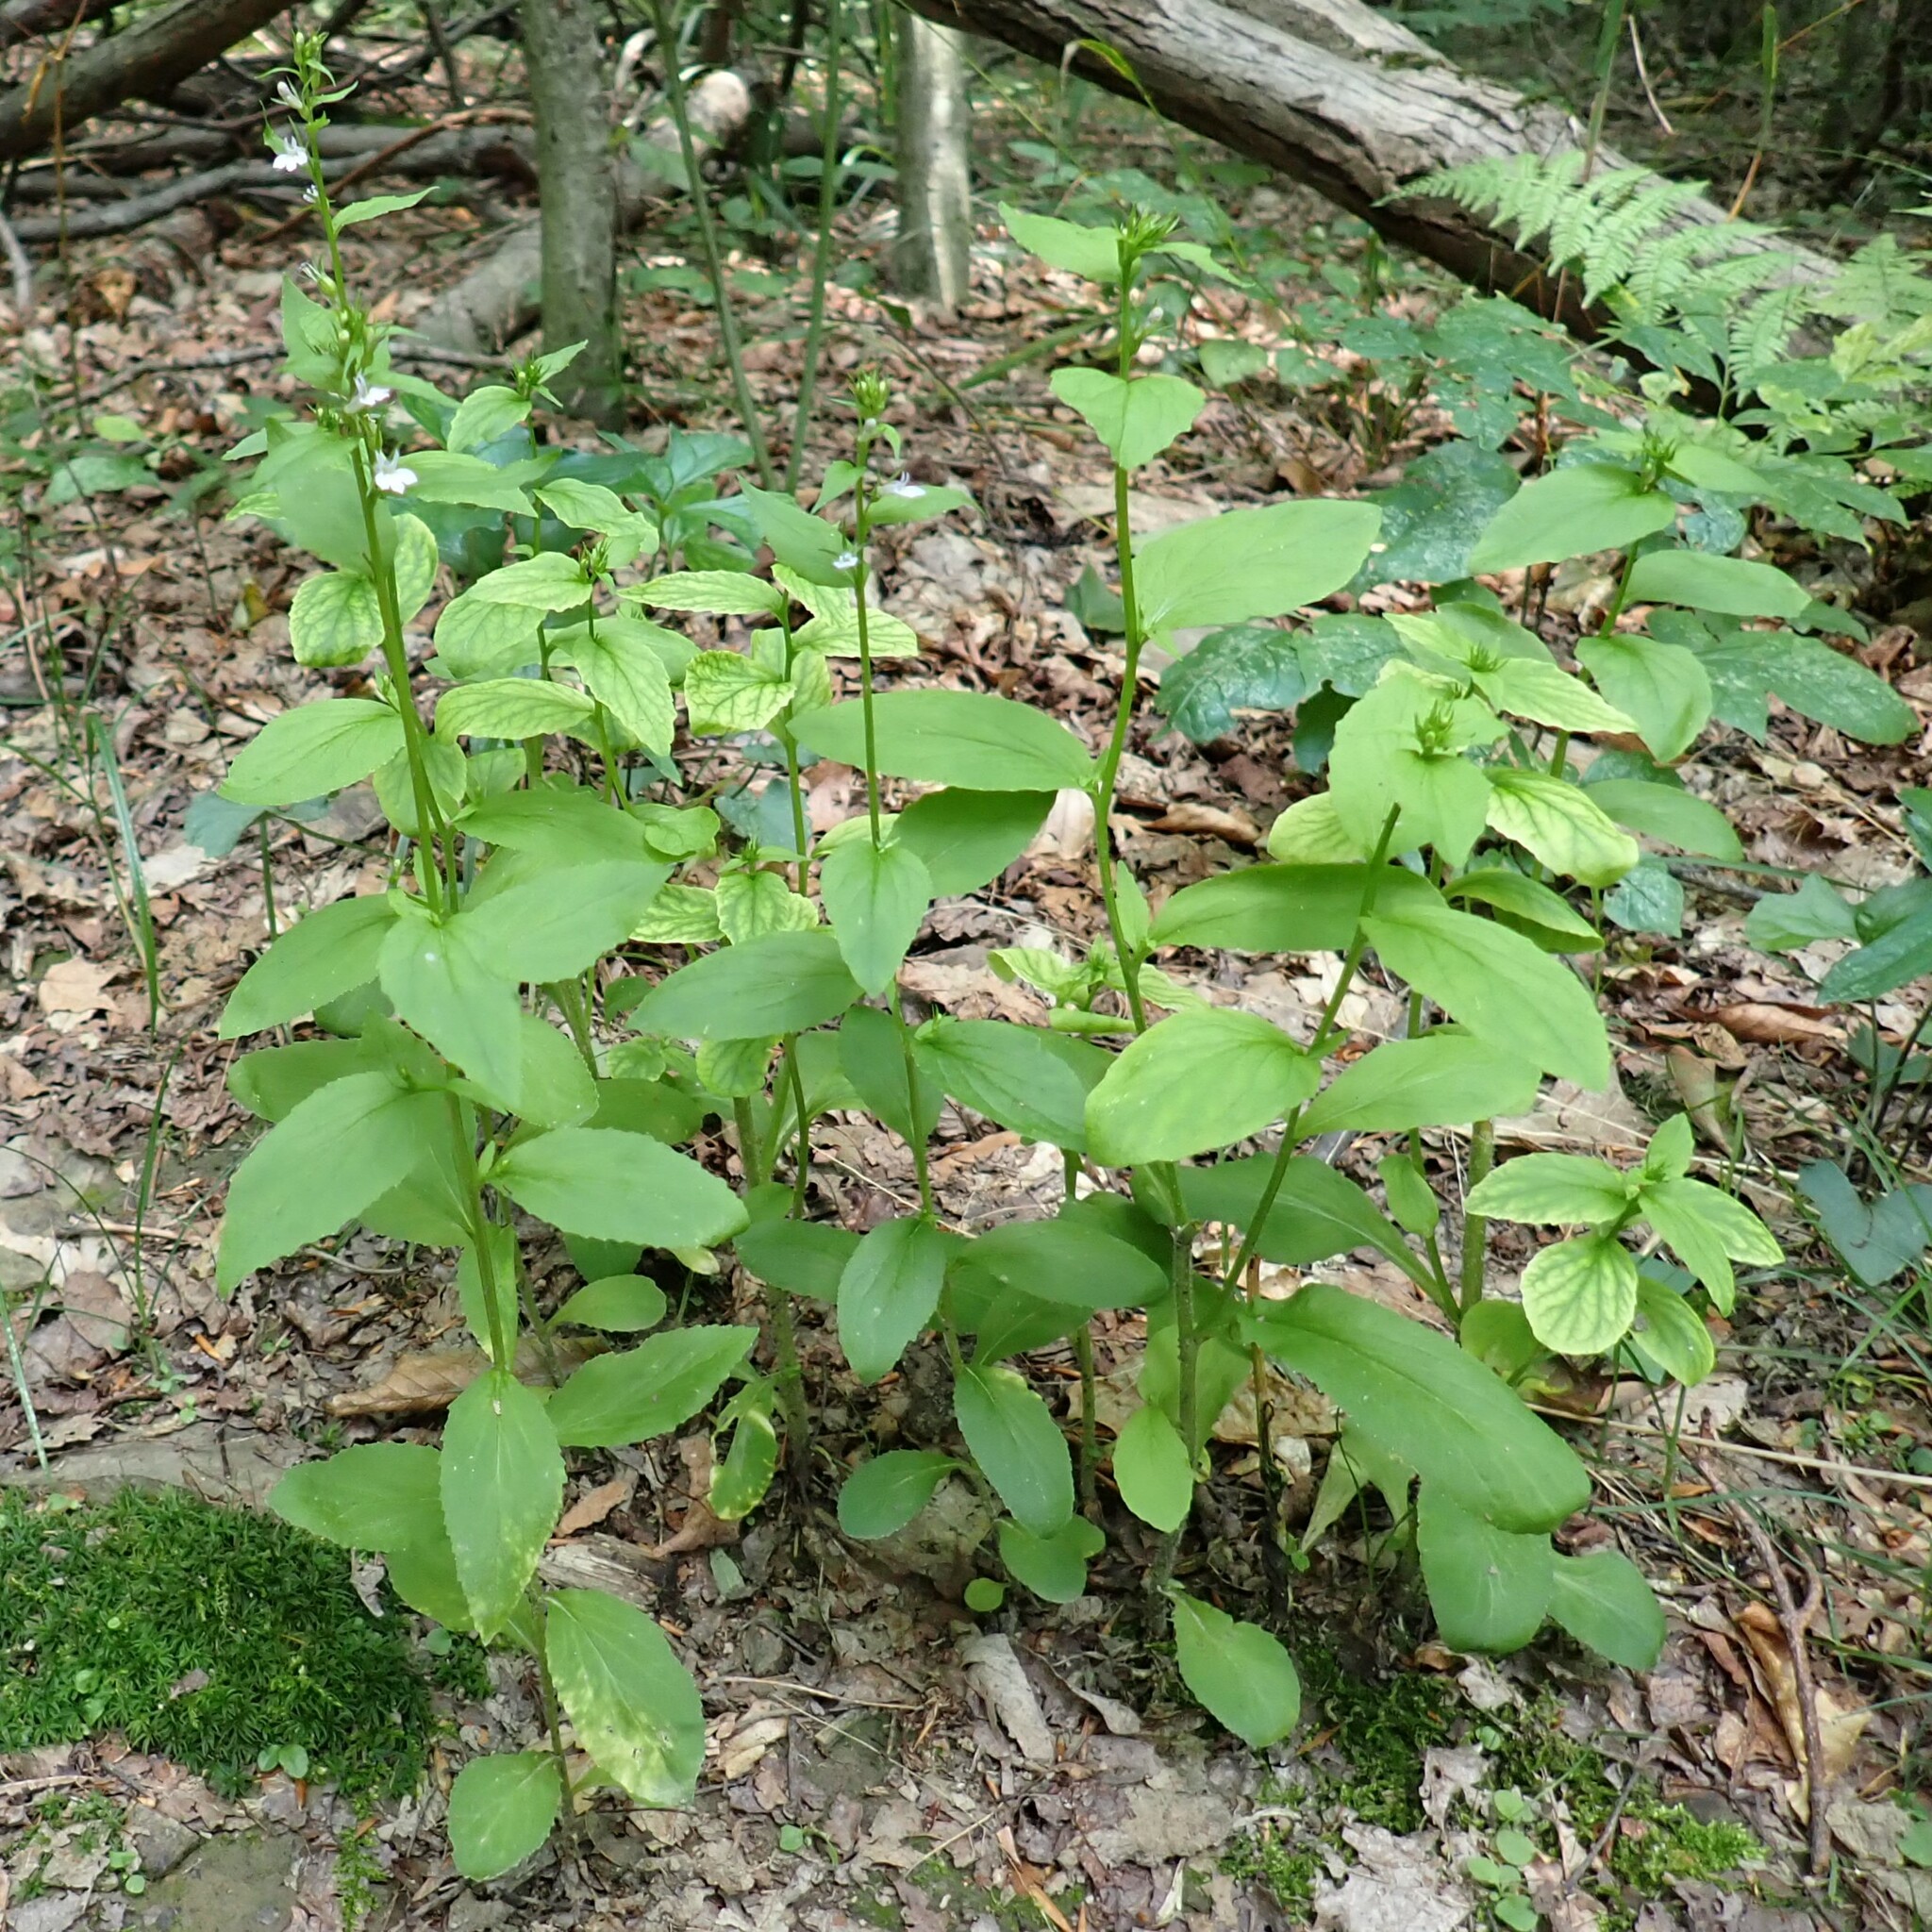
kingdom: Plantae
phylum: Tracheophyta
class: Magnoliopsida
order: Asterales
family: Campanulaceae
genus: Lobelia
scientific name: Lobelia inflata
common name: Indian tobacco
